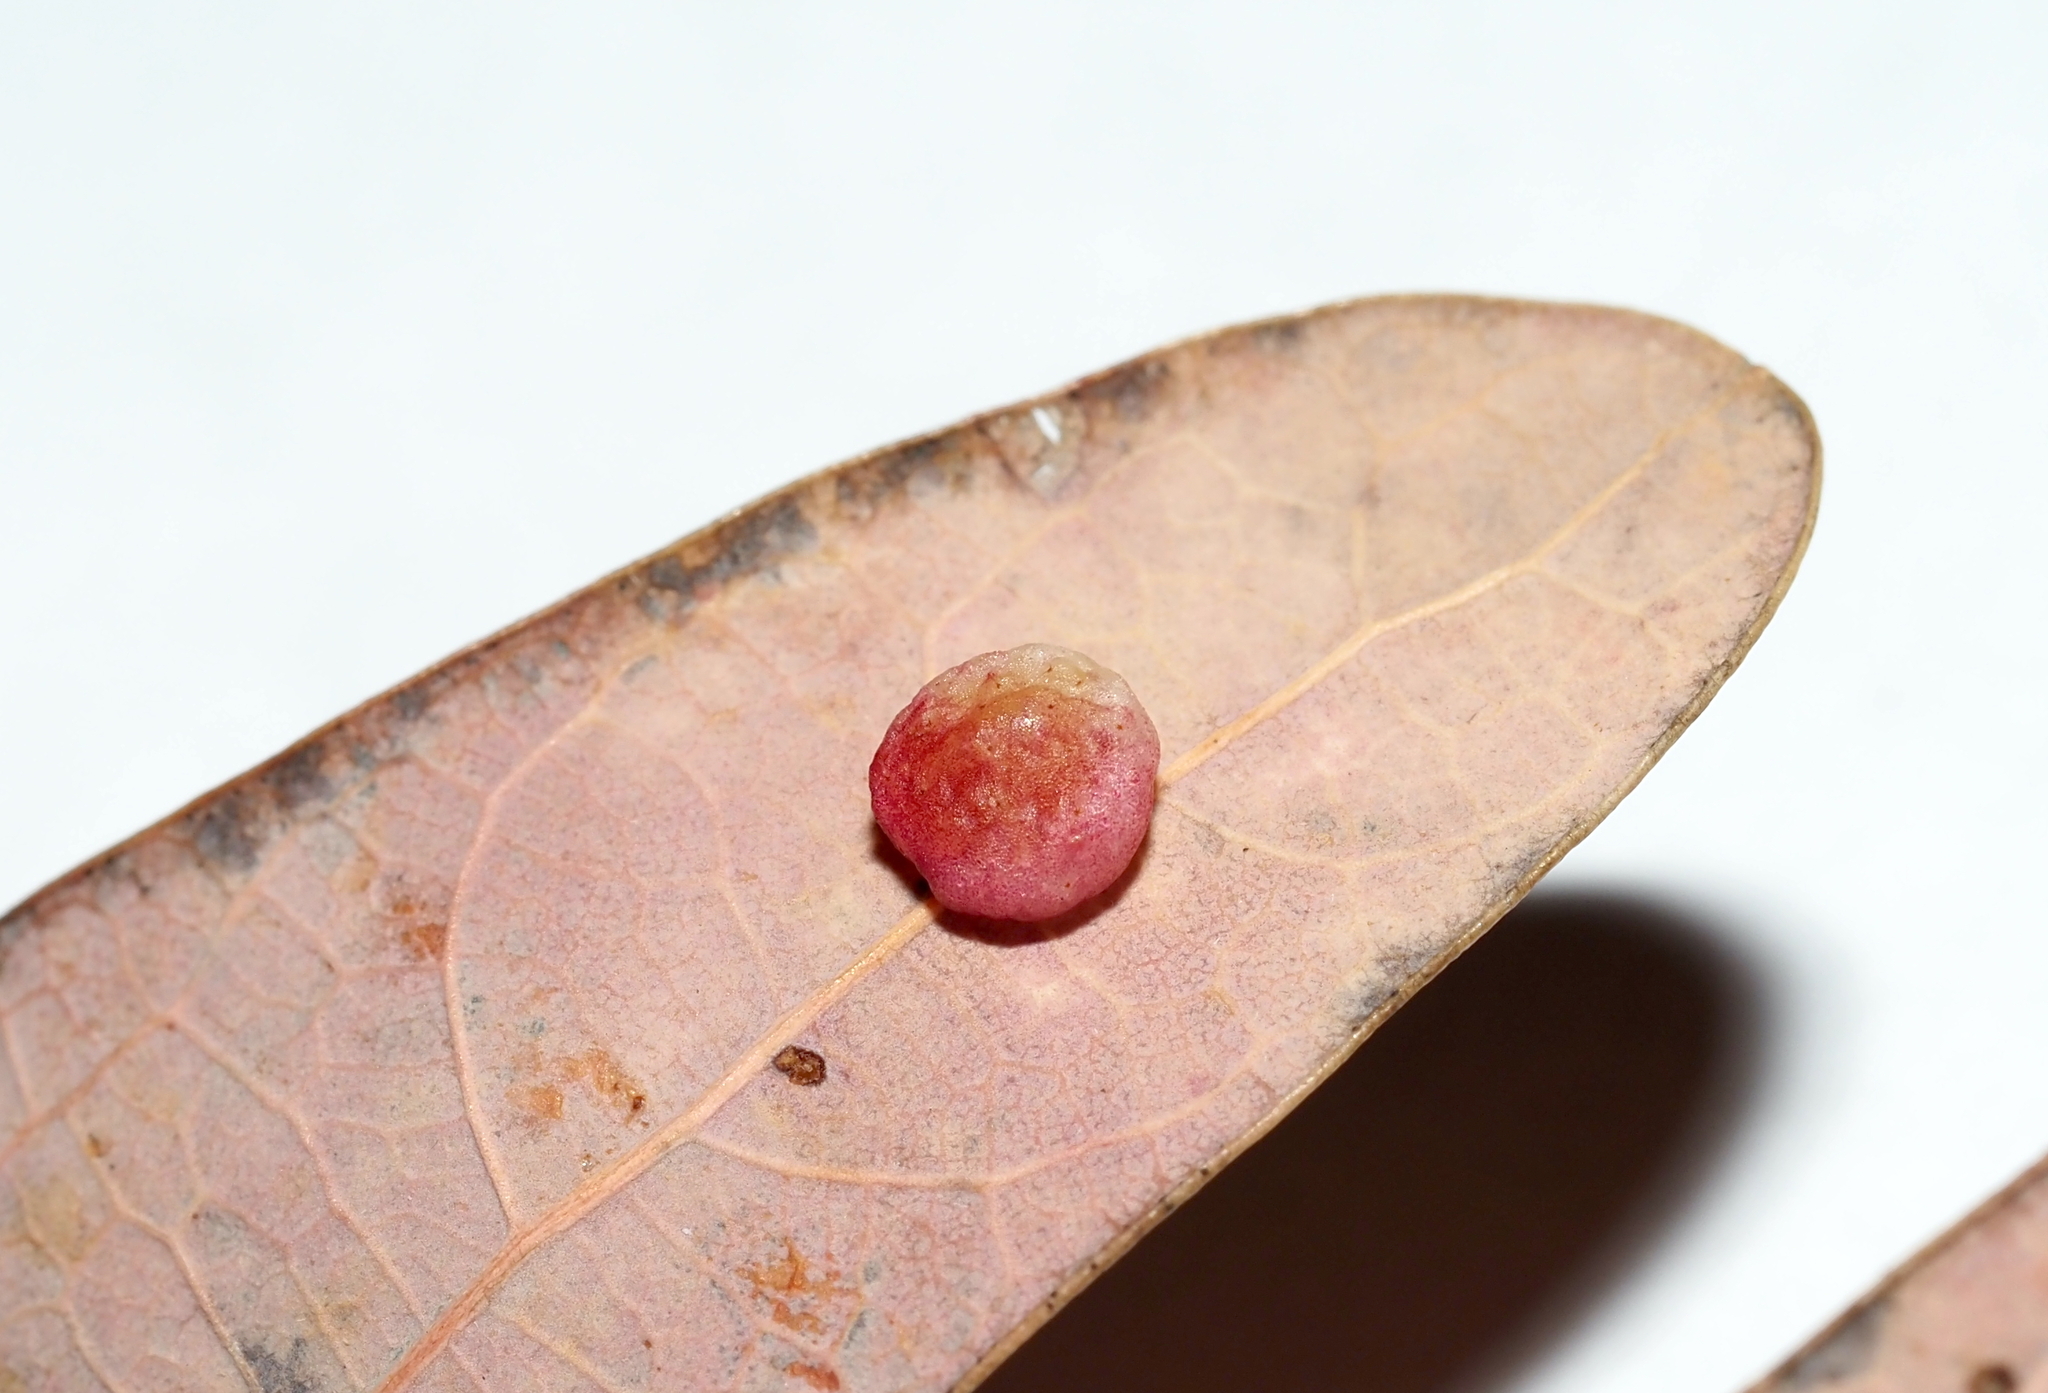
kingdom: Animalia
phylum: Arthropoda
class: Insecta
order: Hymenoptera
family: Cynipidae
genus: Phylloteras
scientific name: Phylloteras
